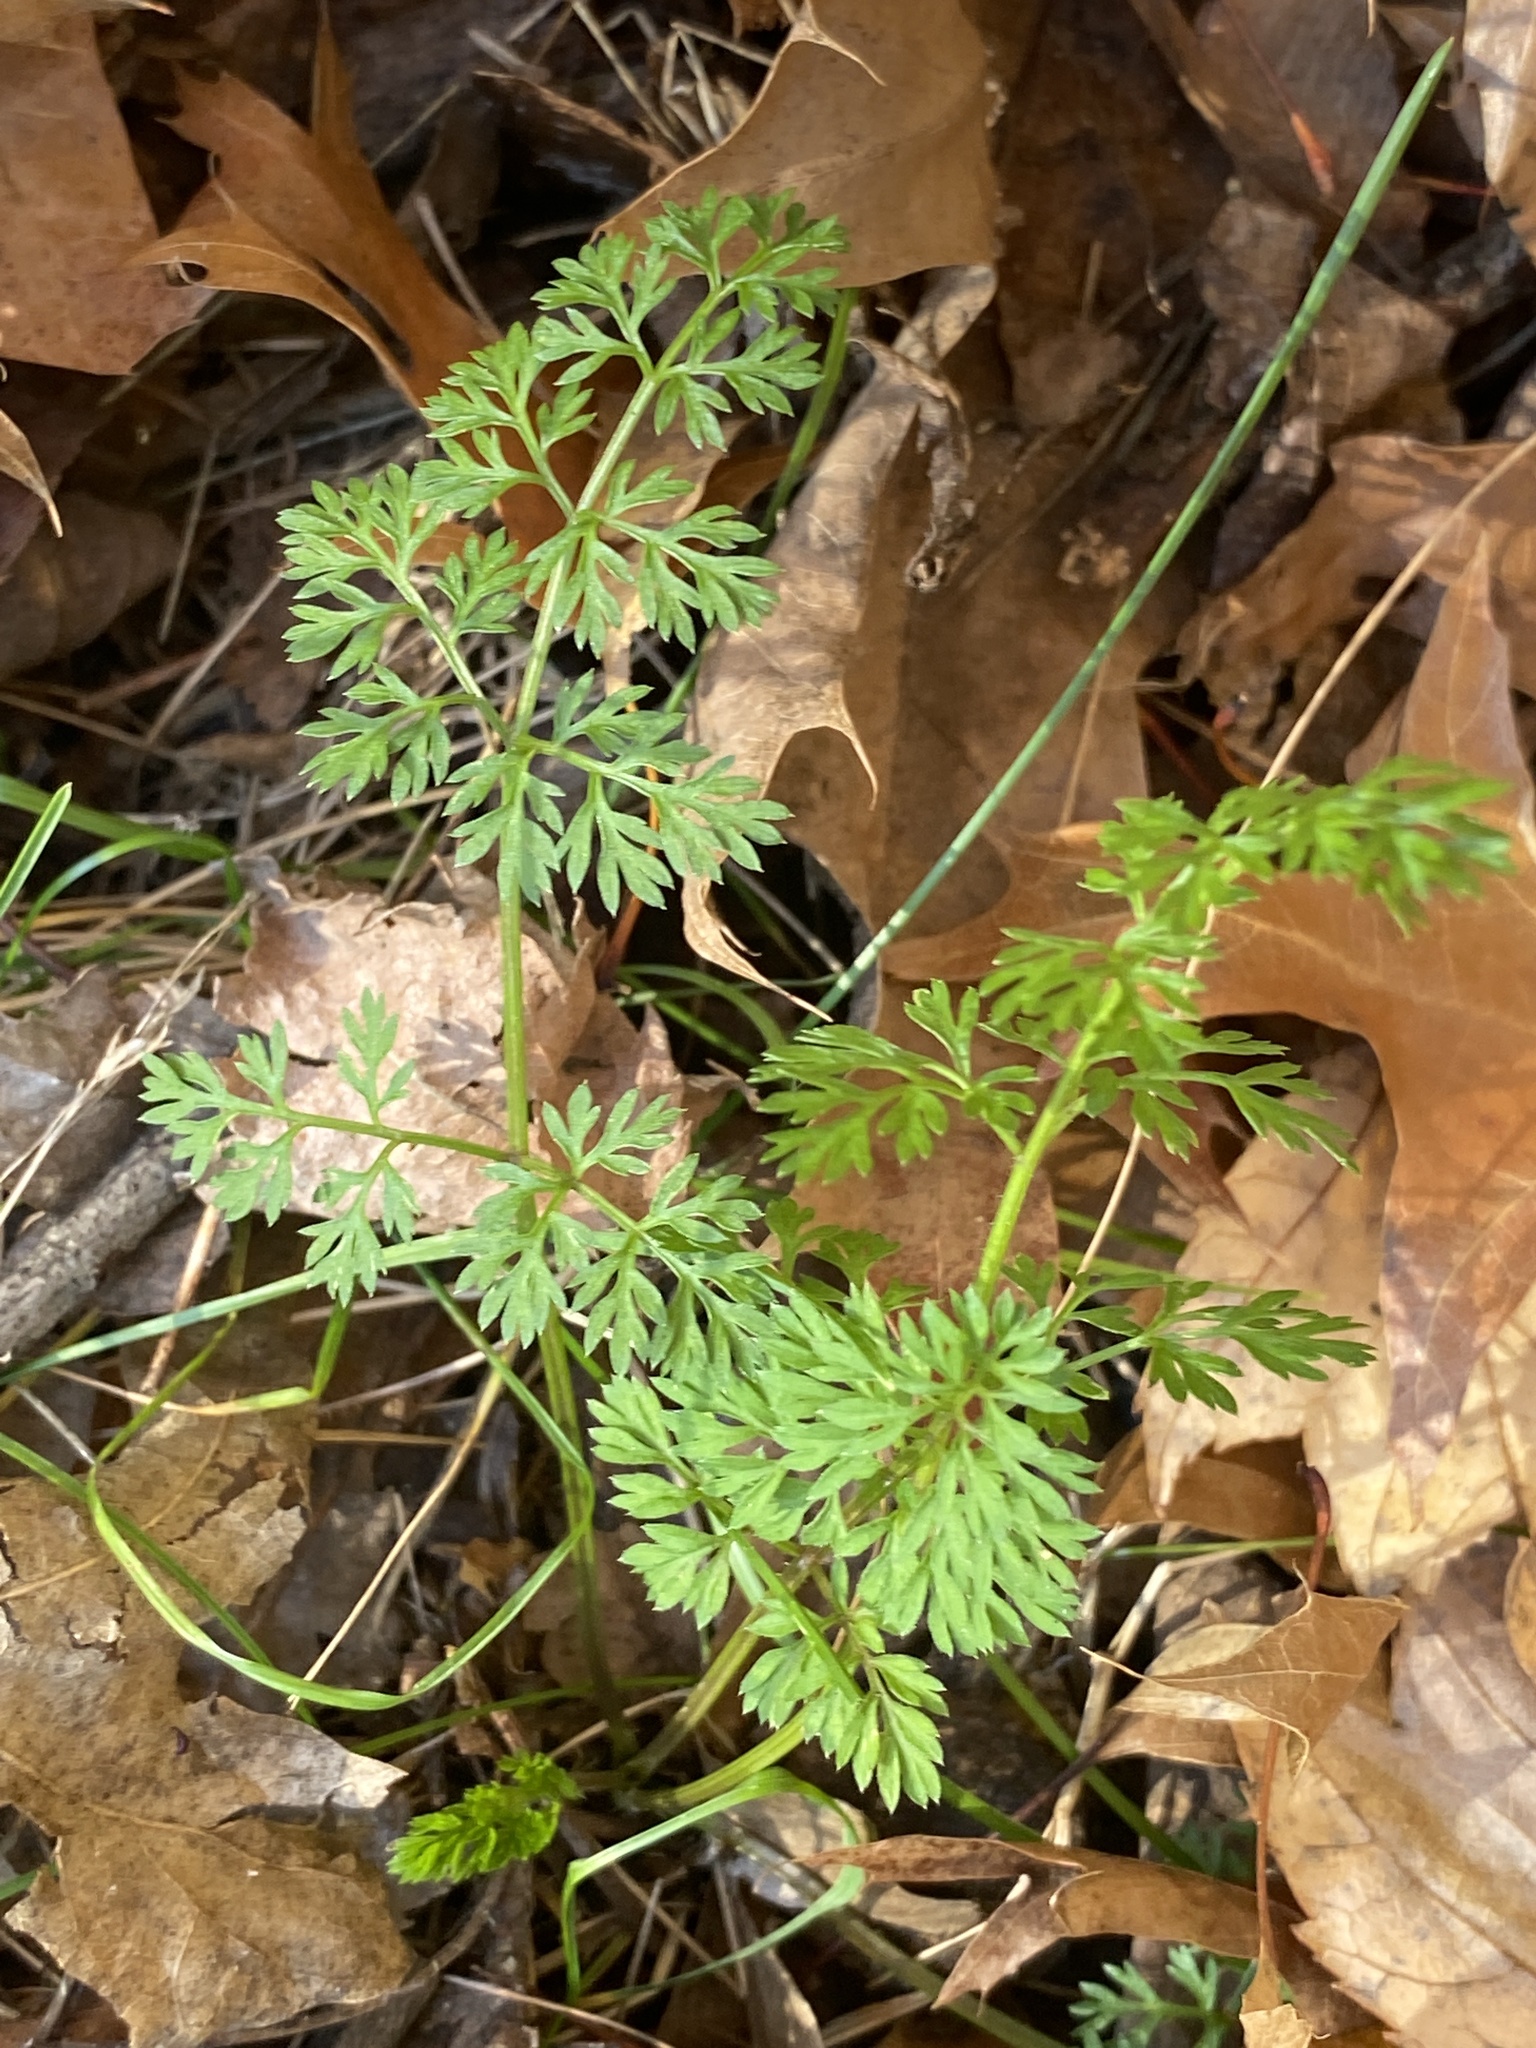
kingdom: Plantae
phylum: Tracheophyta
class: Magnoliopsida
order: Apiales
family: Apiaceae
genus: Daucus
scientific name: Daucus carota
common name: Wild carrot
